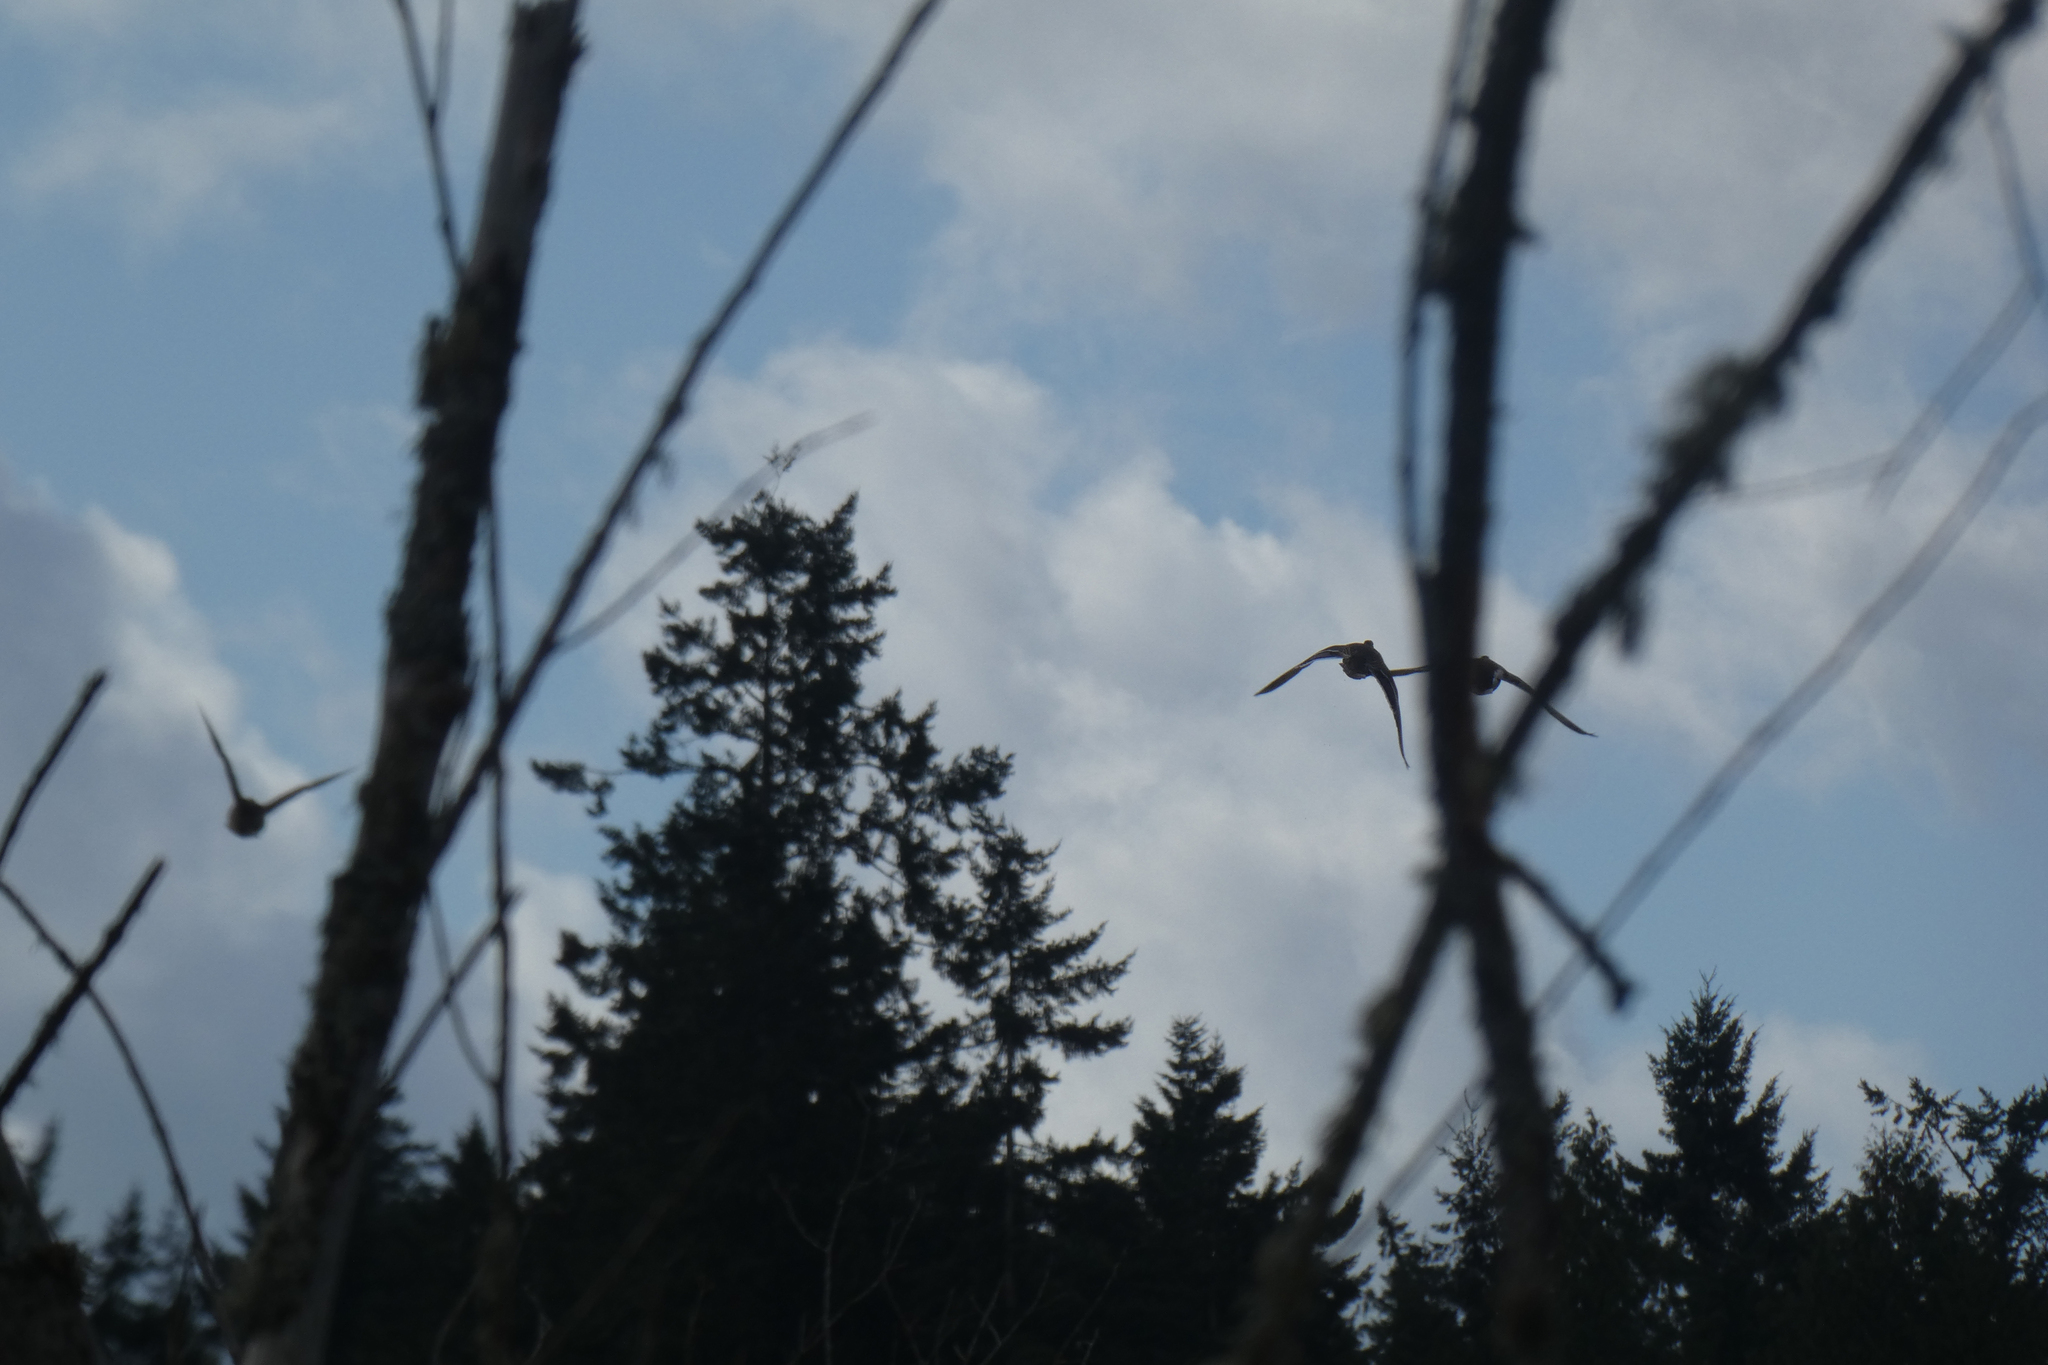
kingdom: Animalia
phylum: Chordata
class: Aves
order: Anseriformes
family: Anatidae
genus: Anas
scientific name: Anas platyrhynchos
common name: Mallard
